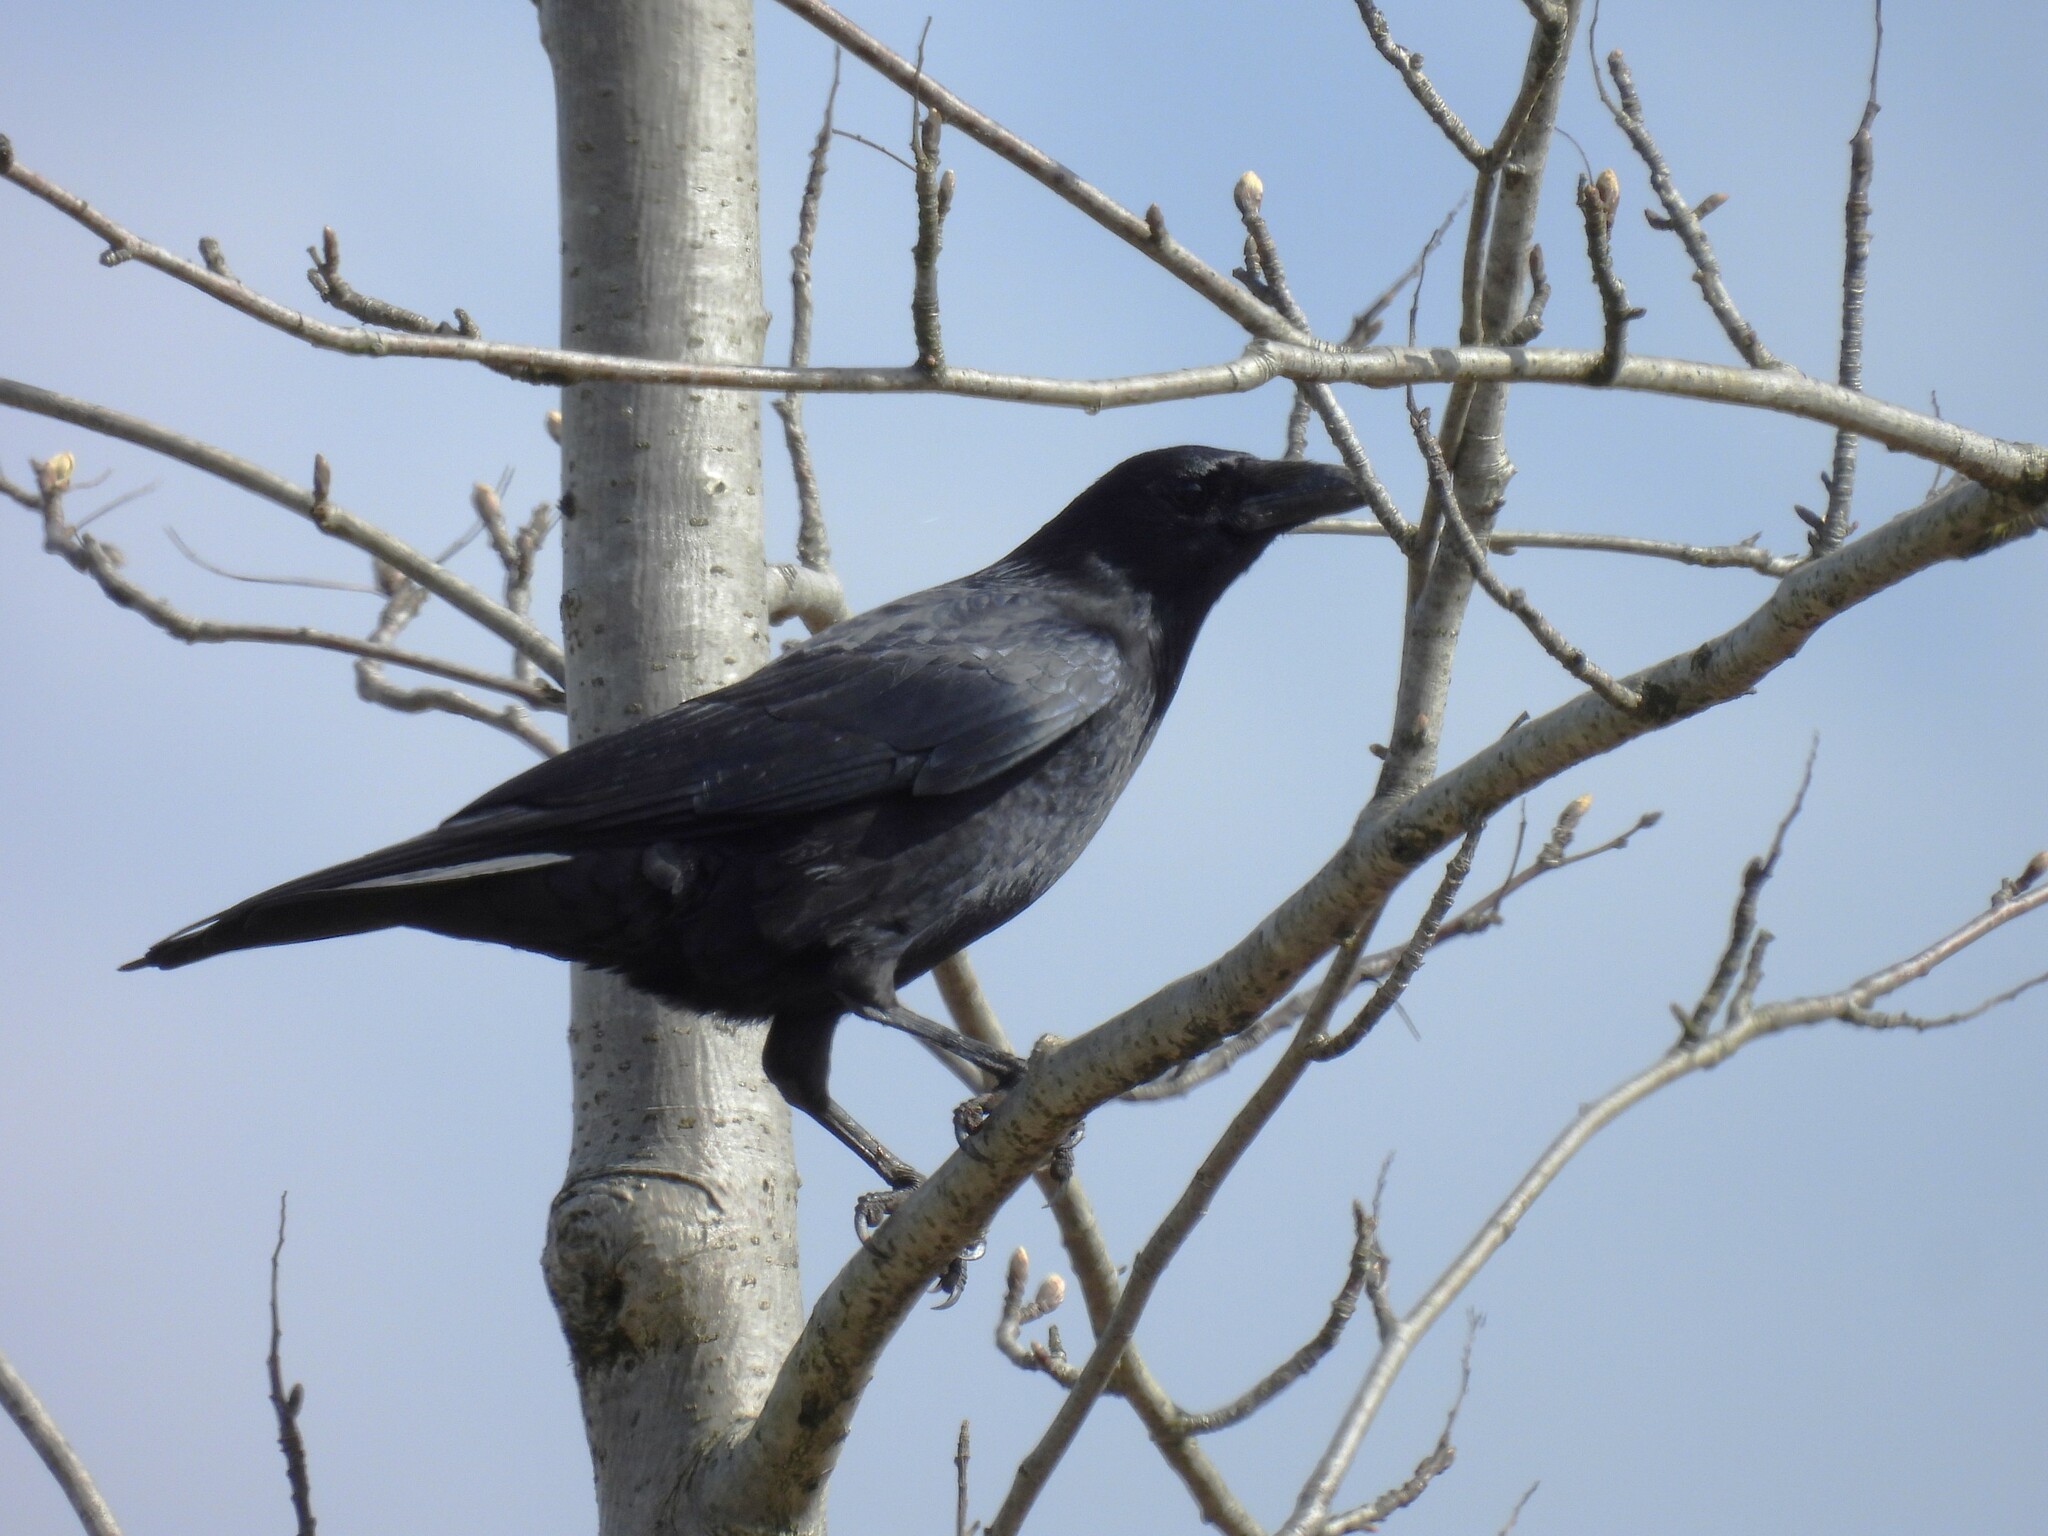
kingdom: Animalia
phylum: Chordata
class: Aves
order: Passeriformes
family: Corvidae
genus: Corvus
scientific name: Corvus corone
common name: Carrion crow
